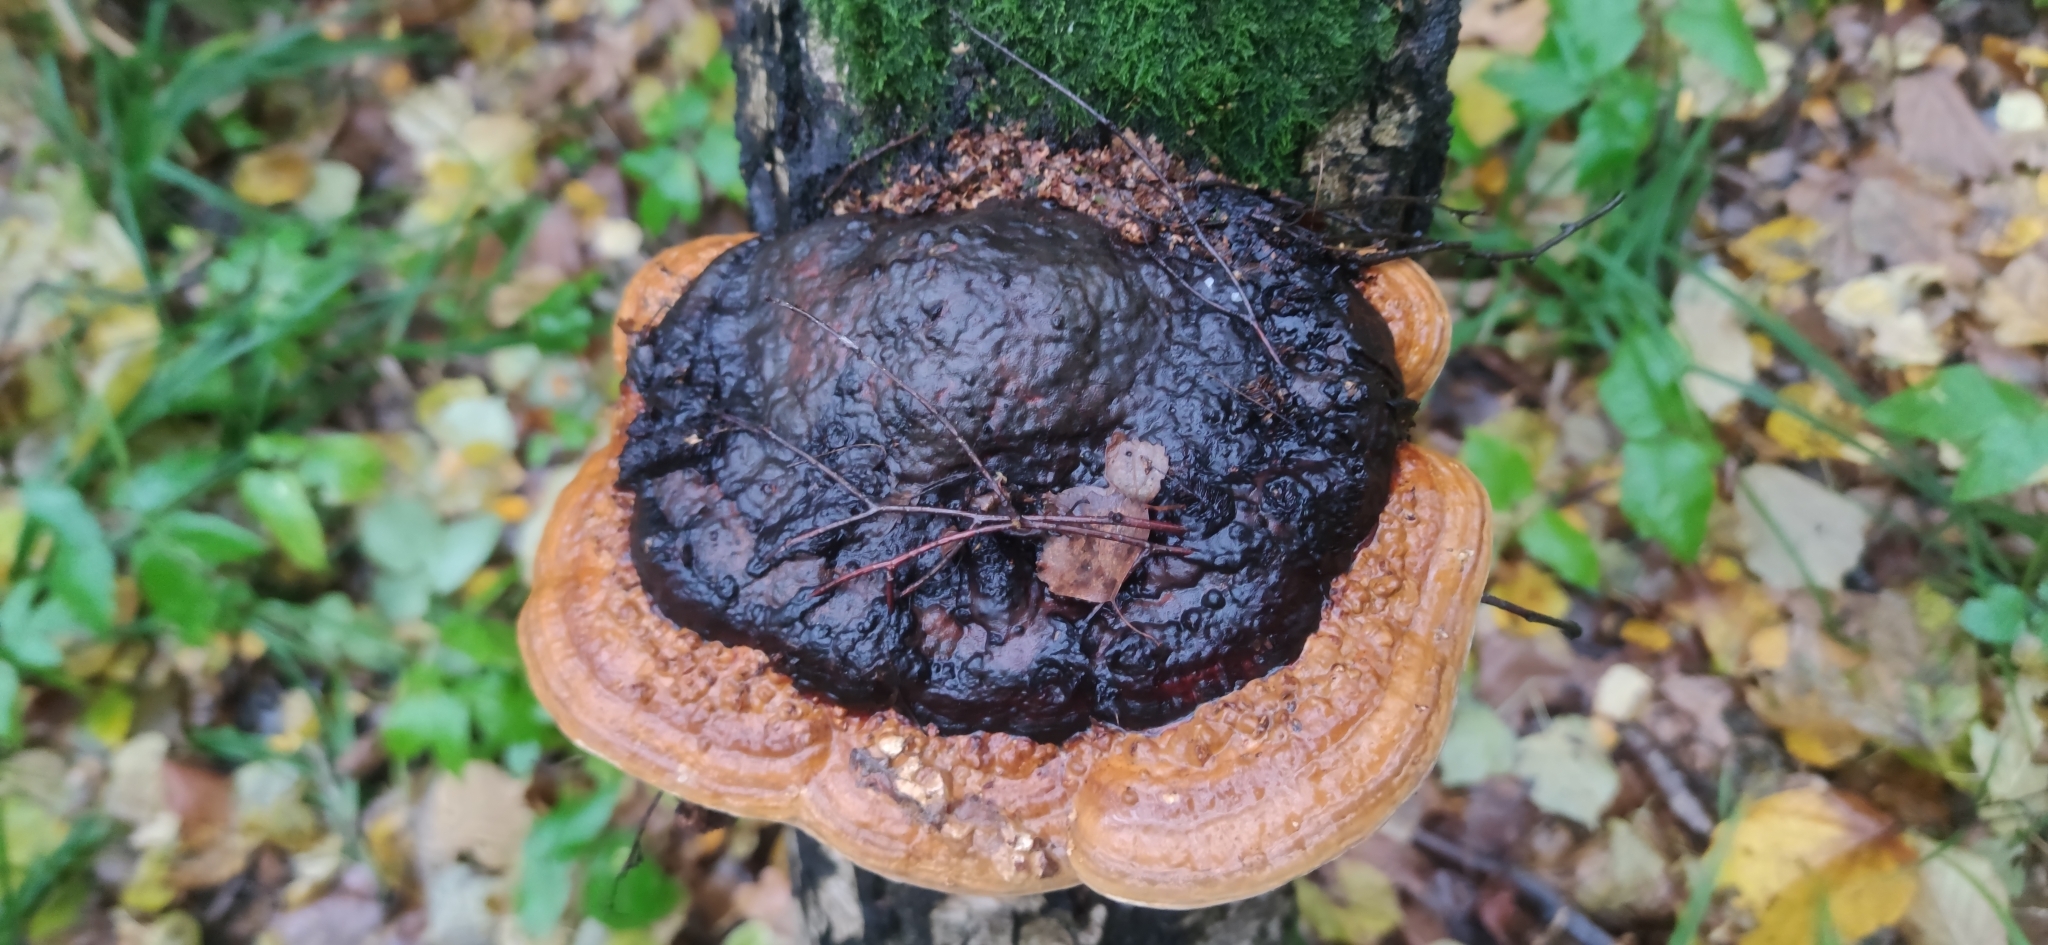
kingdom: Fungi
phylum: Basidiomycota
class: Agaricomycetes
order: Polyporales
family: Fomitopsidaceae
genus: Fomitopsis
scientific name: Fomitopsis pinicola
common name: Red-belted bracket
